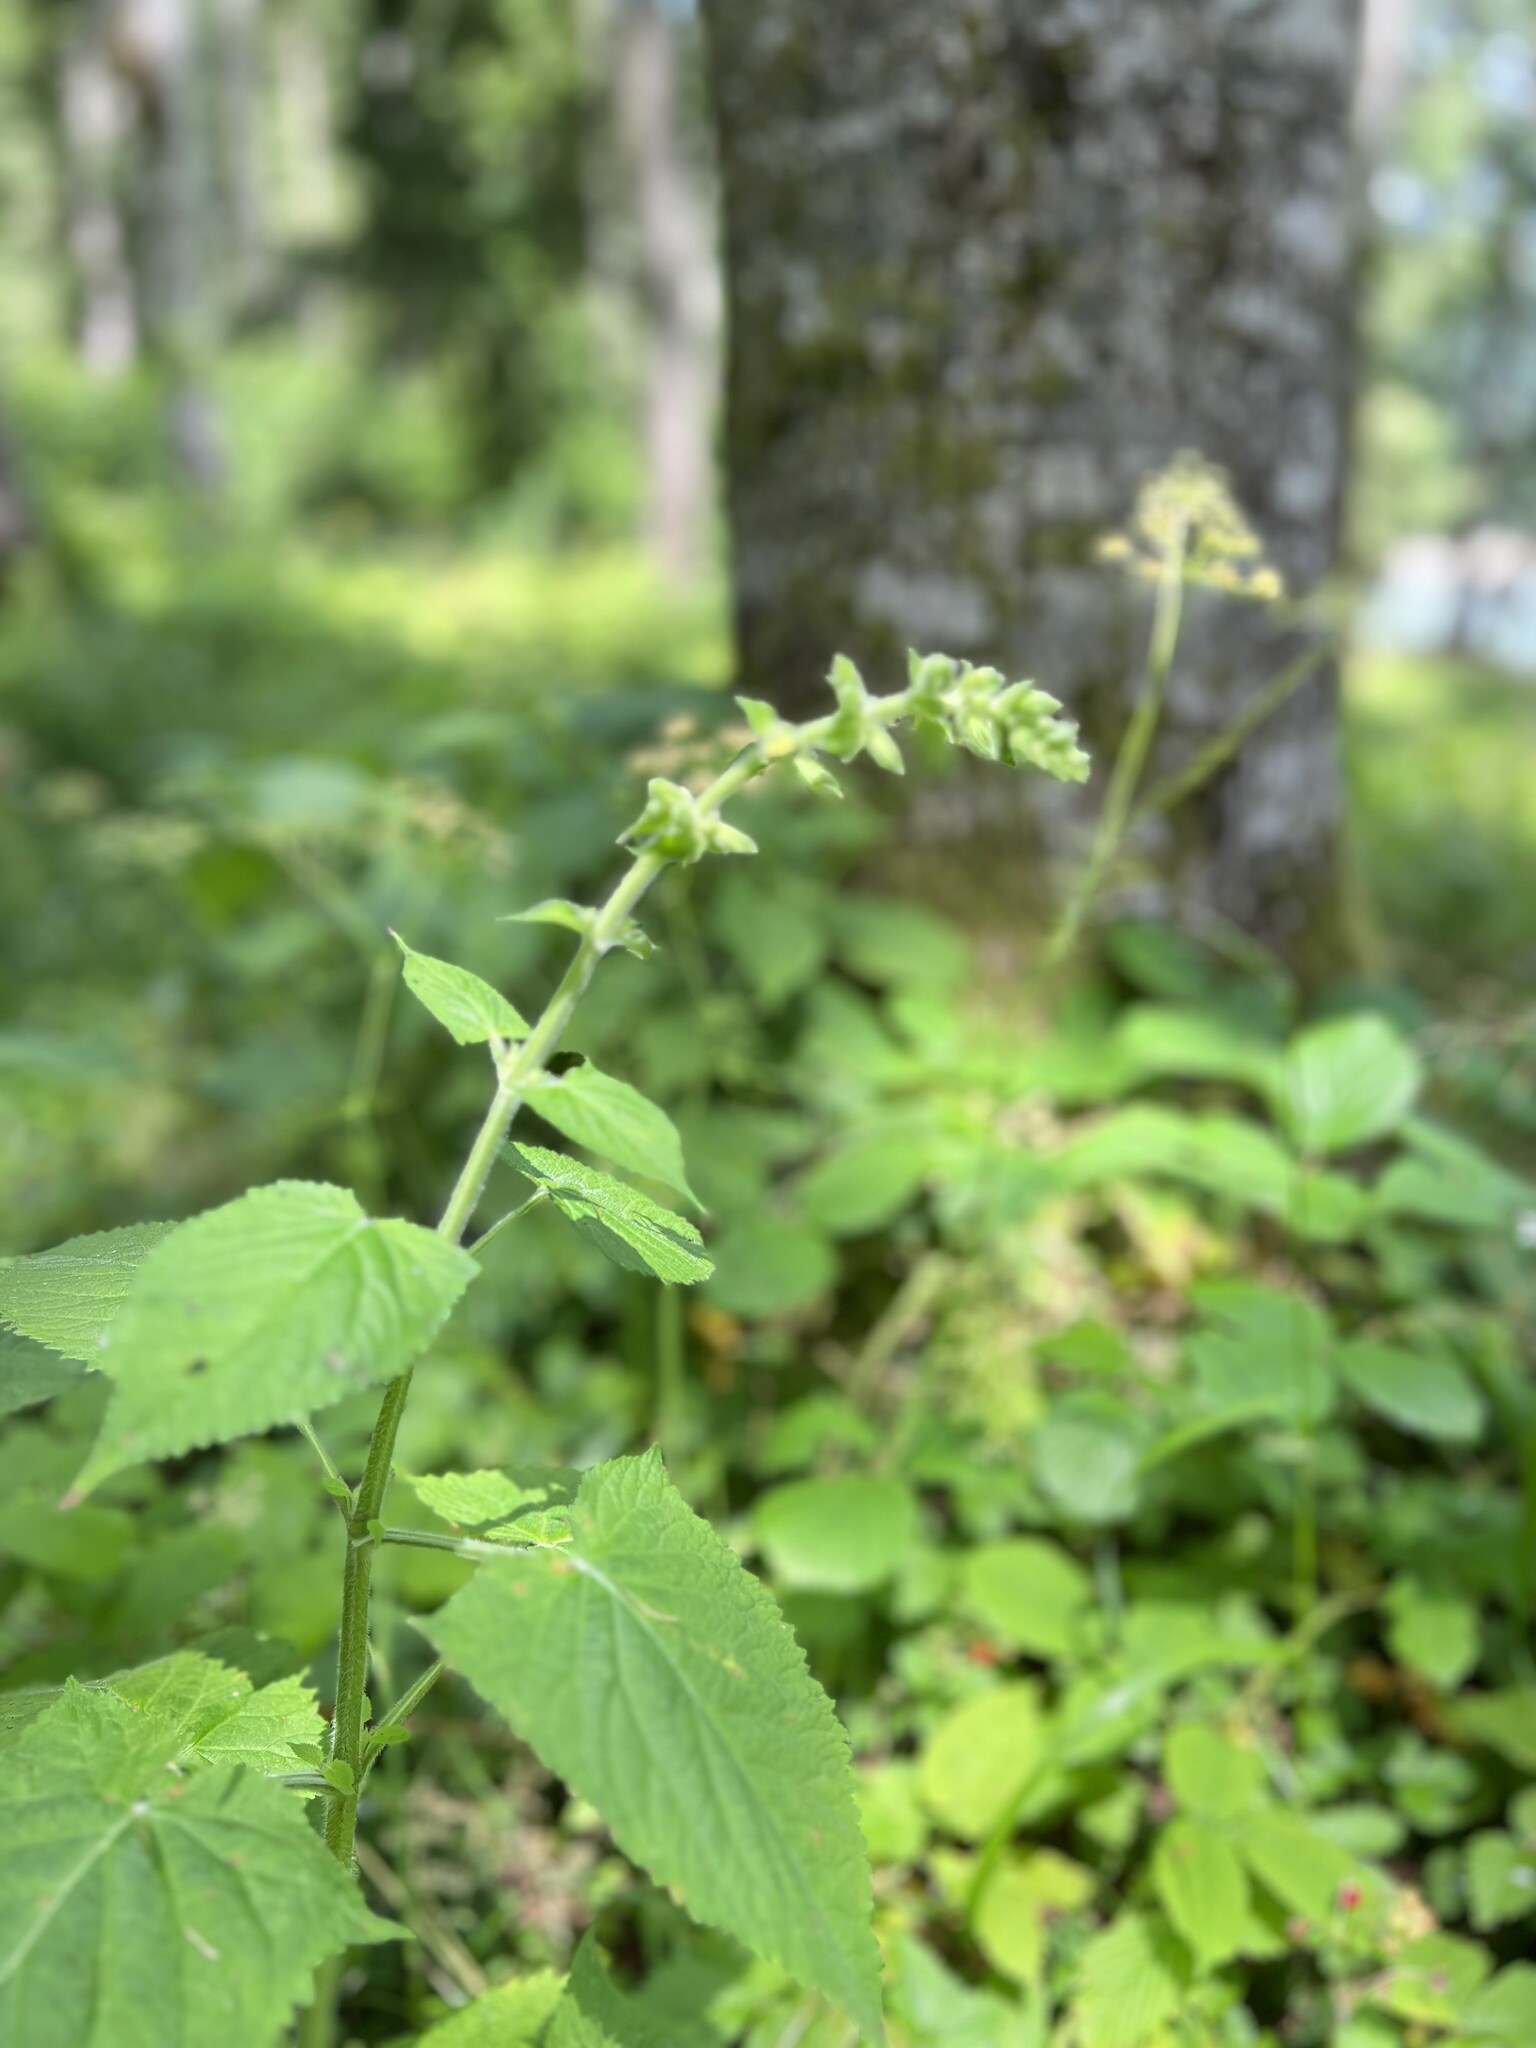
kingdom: Plantae
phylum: Tracheophyta
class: Magnoliopsida
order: Lamiales
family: Lamiaceae
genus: Salvia
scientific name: Salvia glutinosa
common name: Sticky clary
